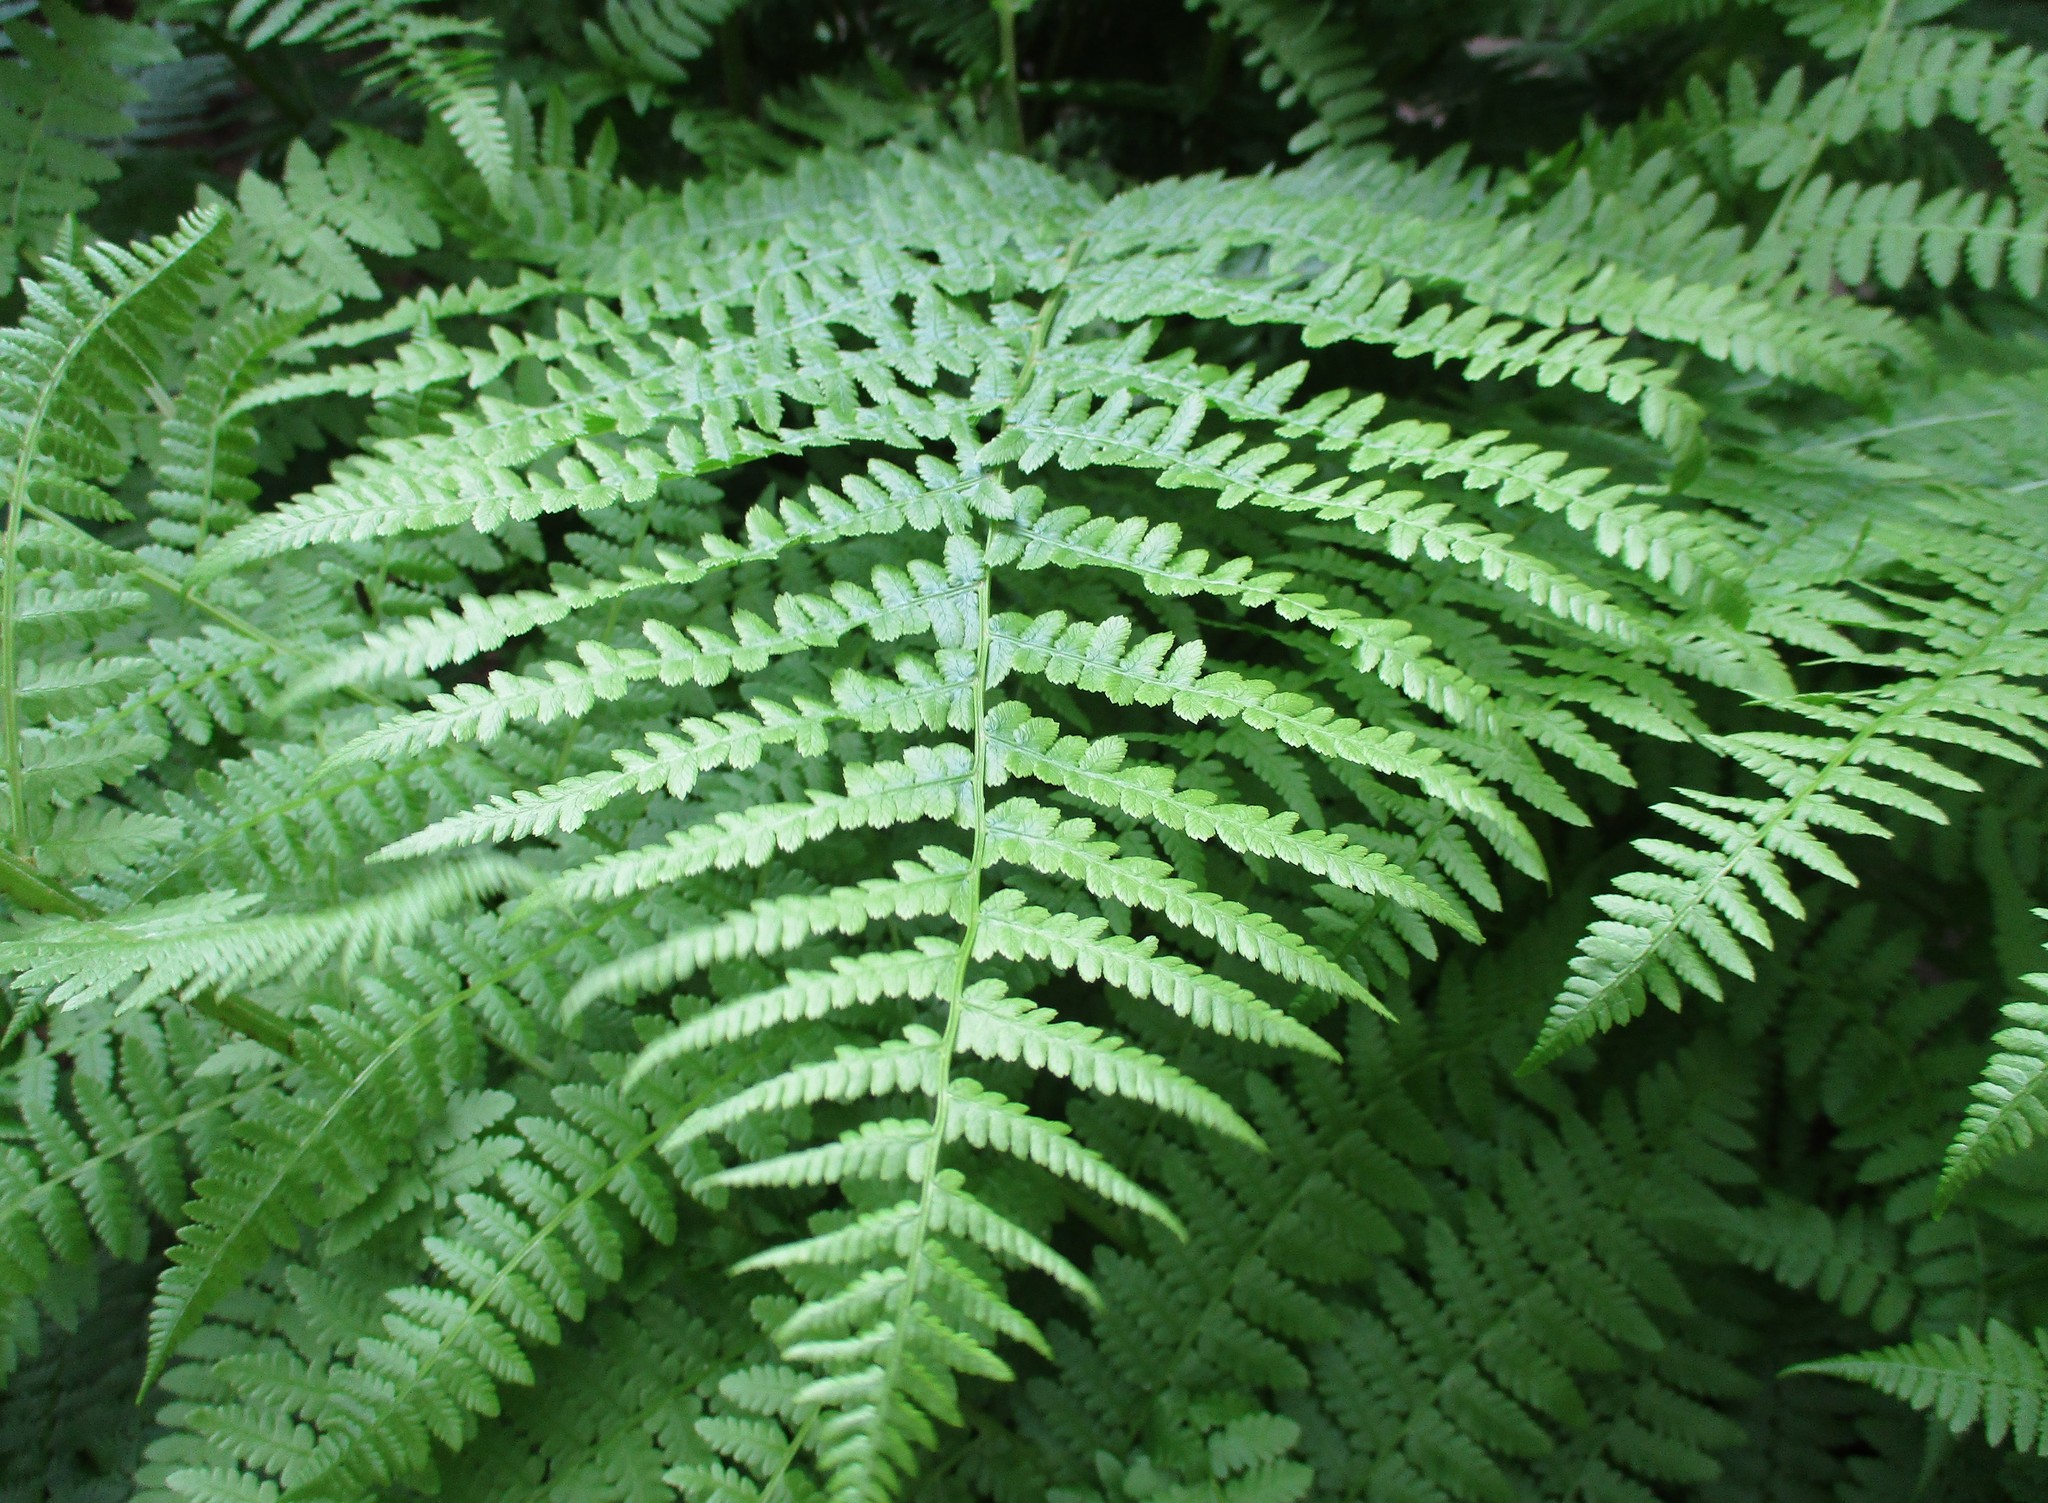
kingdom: Plantae
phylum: Tracheophyta
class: Polypodiopsida
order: Polypodiales
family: Athyriaceae
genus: Athyrium
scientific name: Athyrium filix-femina
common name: Lady fern
